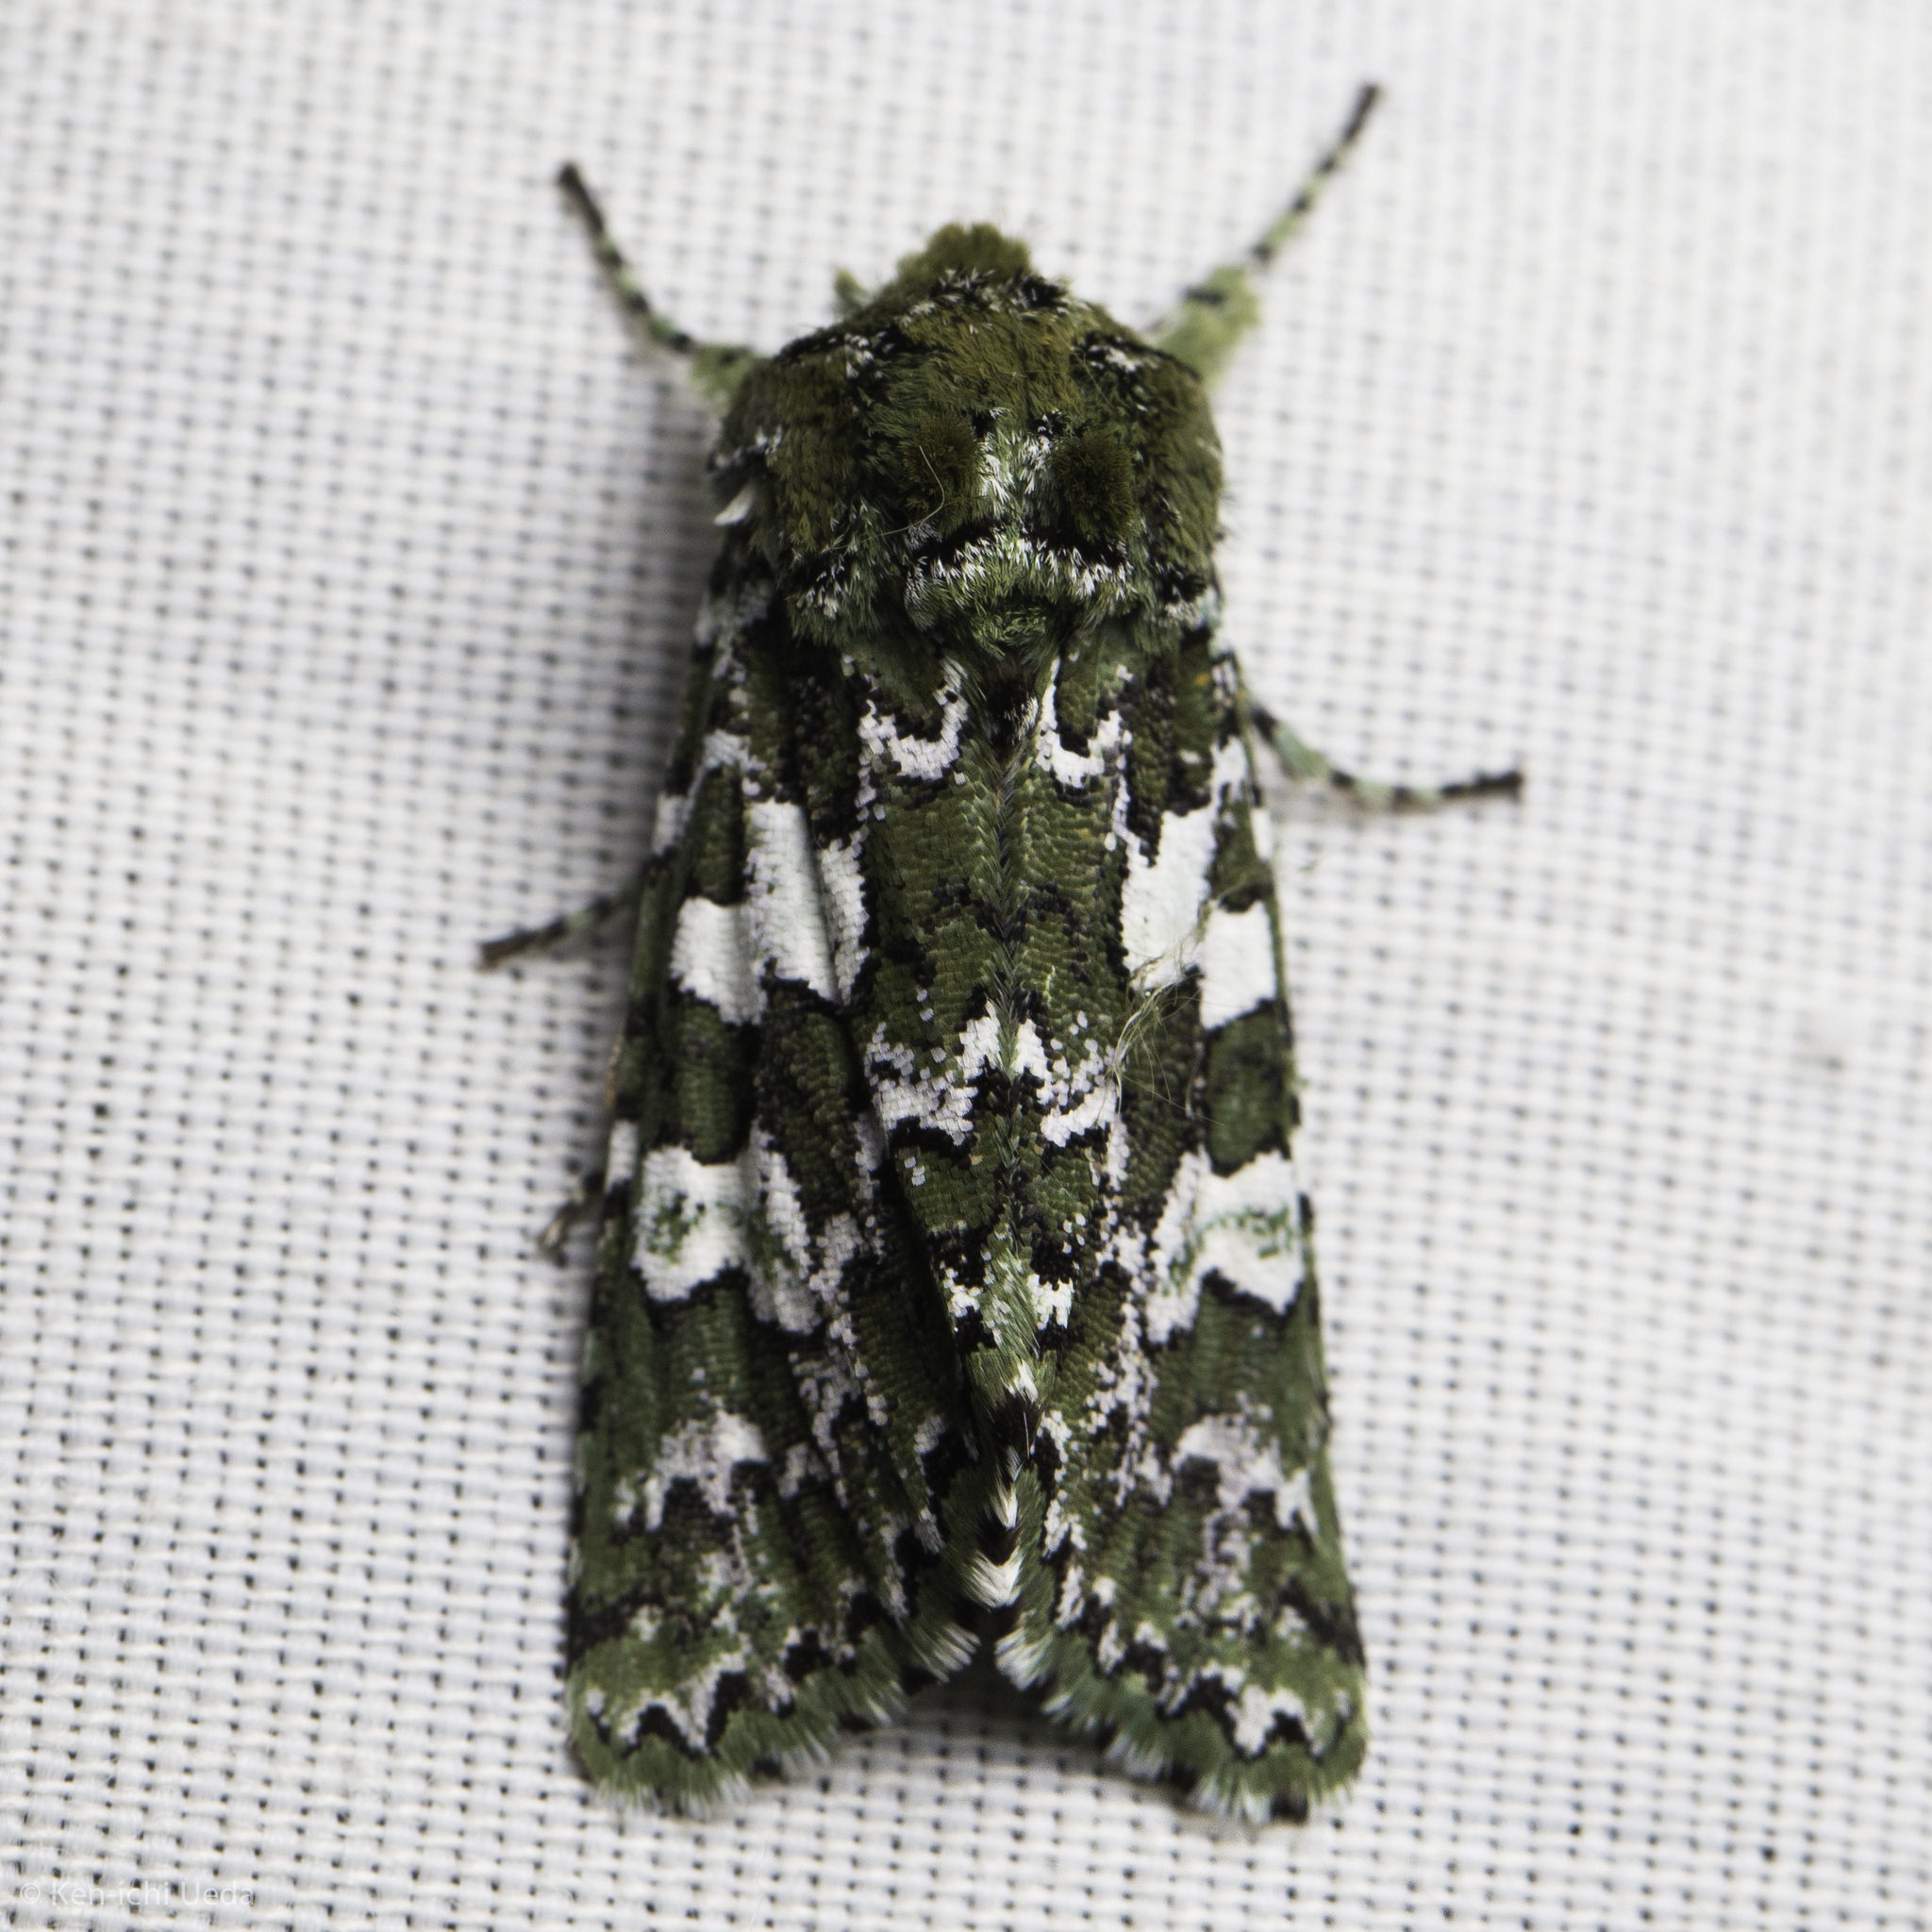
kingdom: Animalia
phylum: Arthropoda
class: Insecta
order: Lepidoptera
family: Noctuidae
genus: Feralia
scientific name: Feralia februalis
